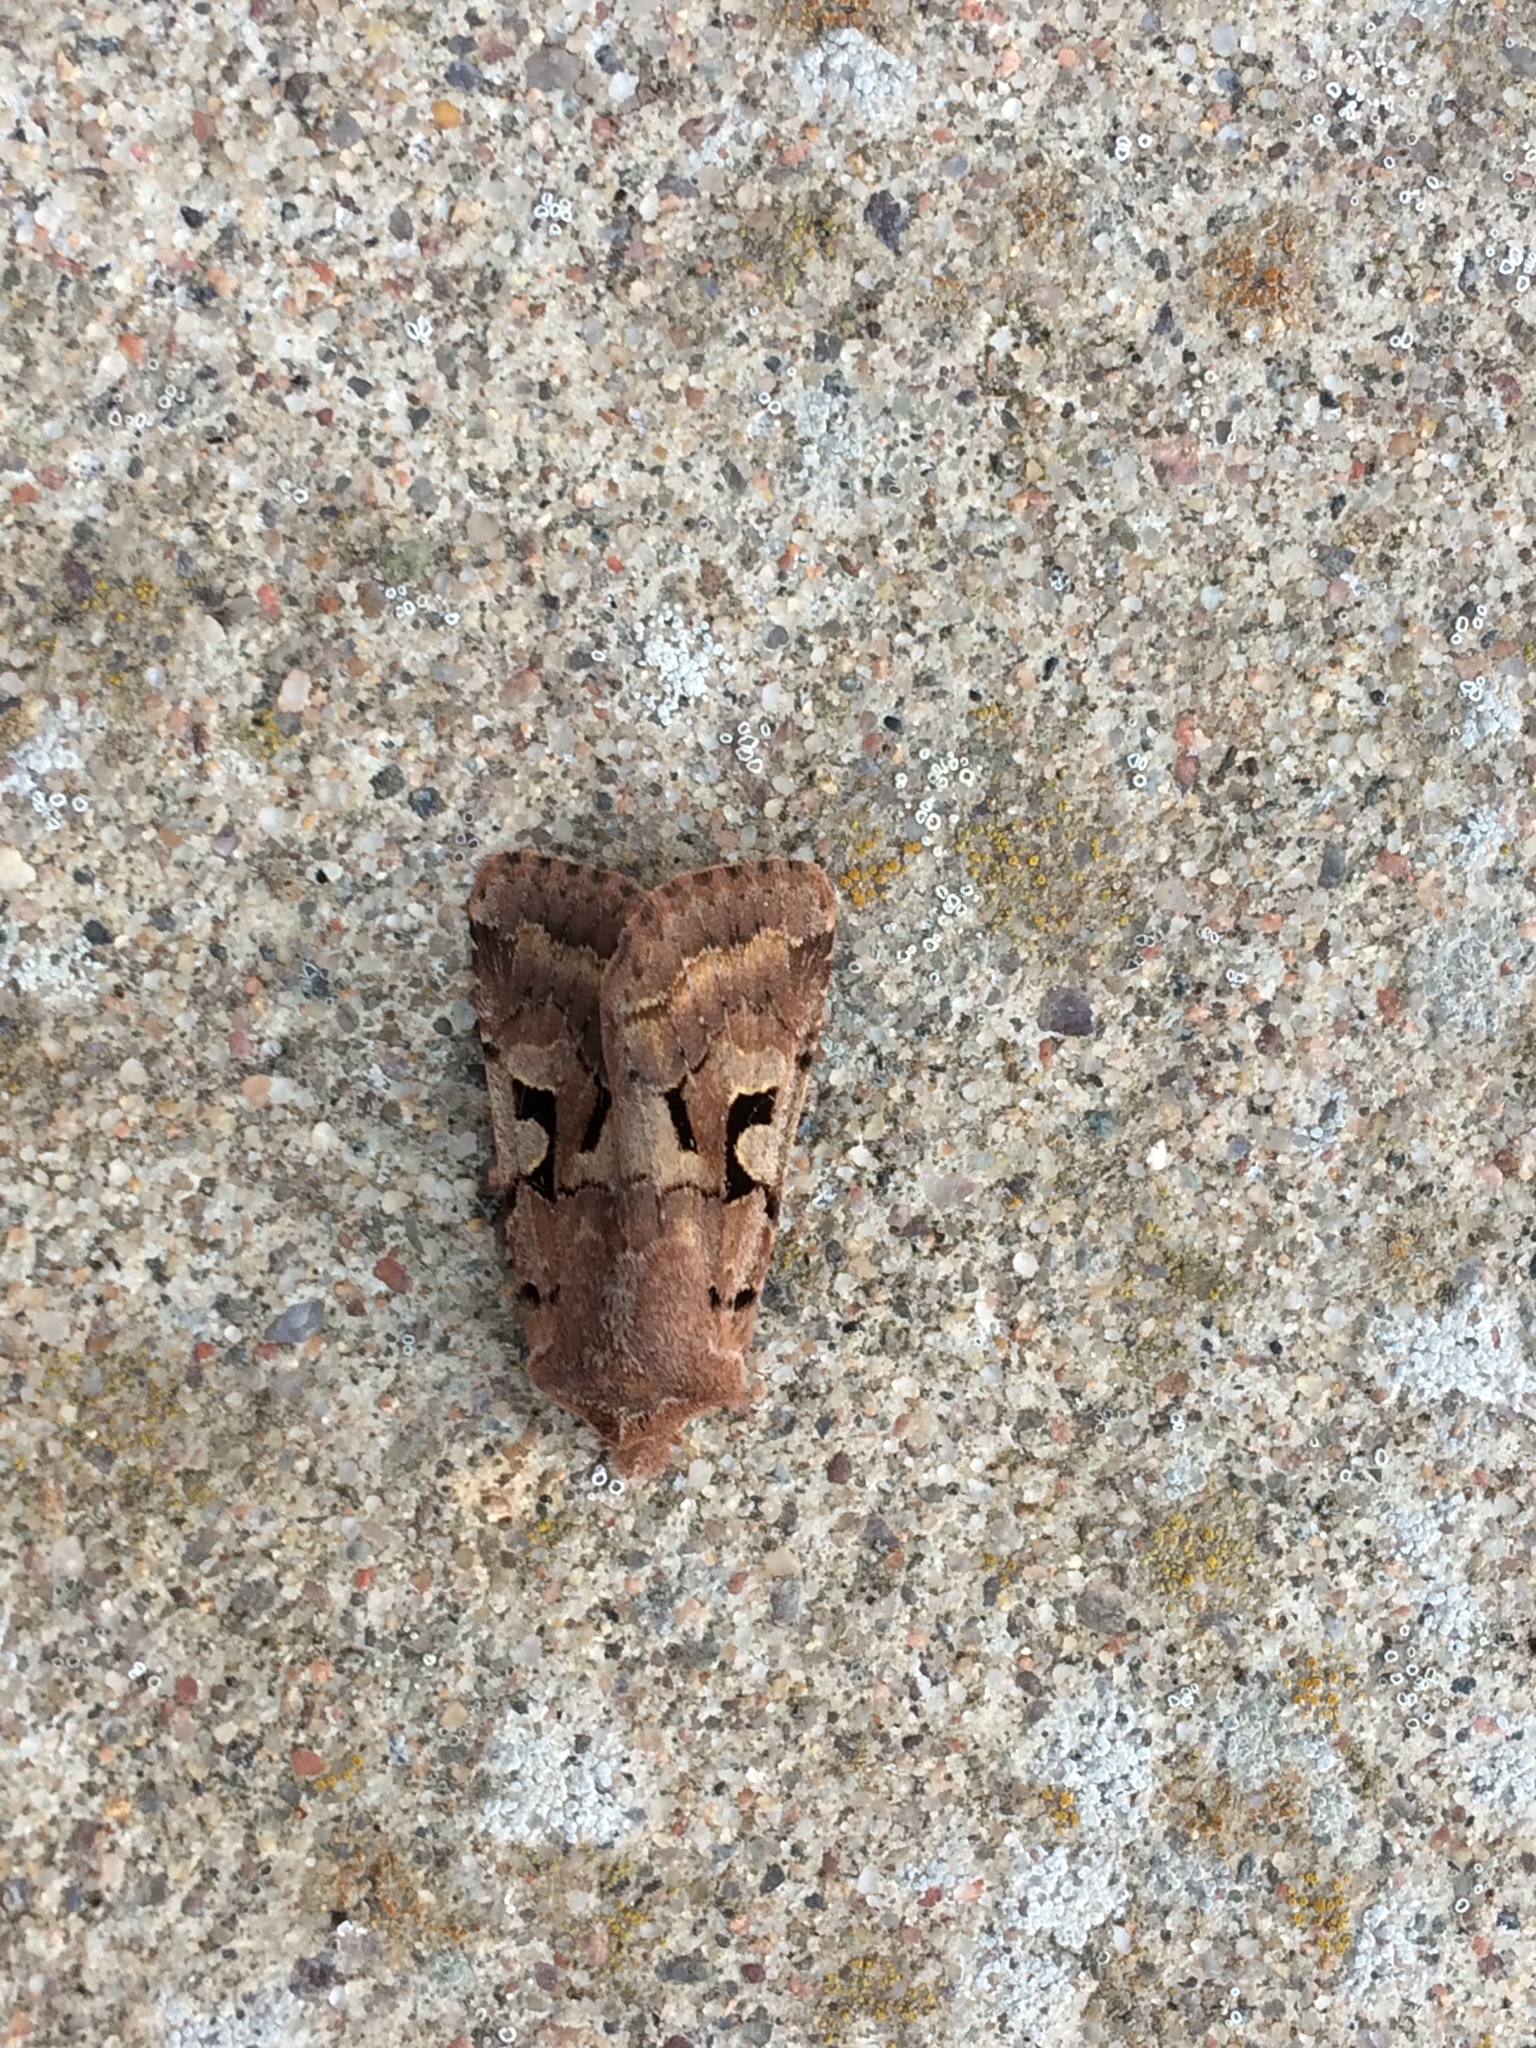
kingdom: Animalia
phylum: Arthropoda
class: Insecta
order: Lepidoptera
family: Noctuidae
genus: Orthosia
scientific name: Orthosia gothica
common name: Hebrew character
